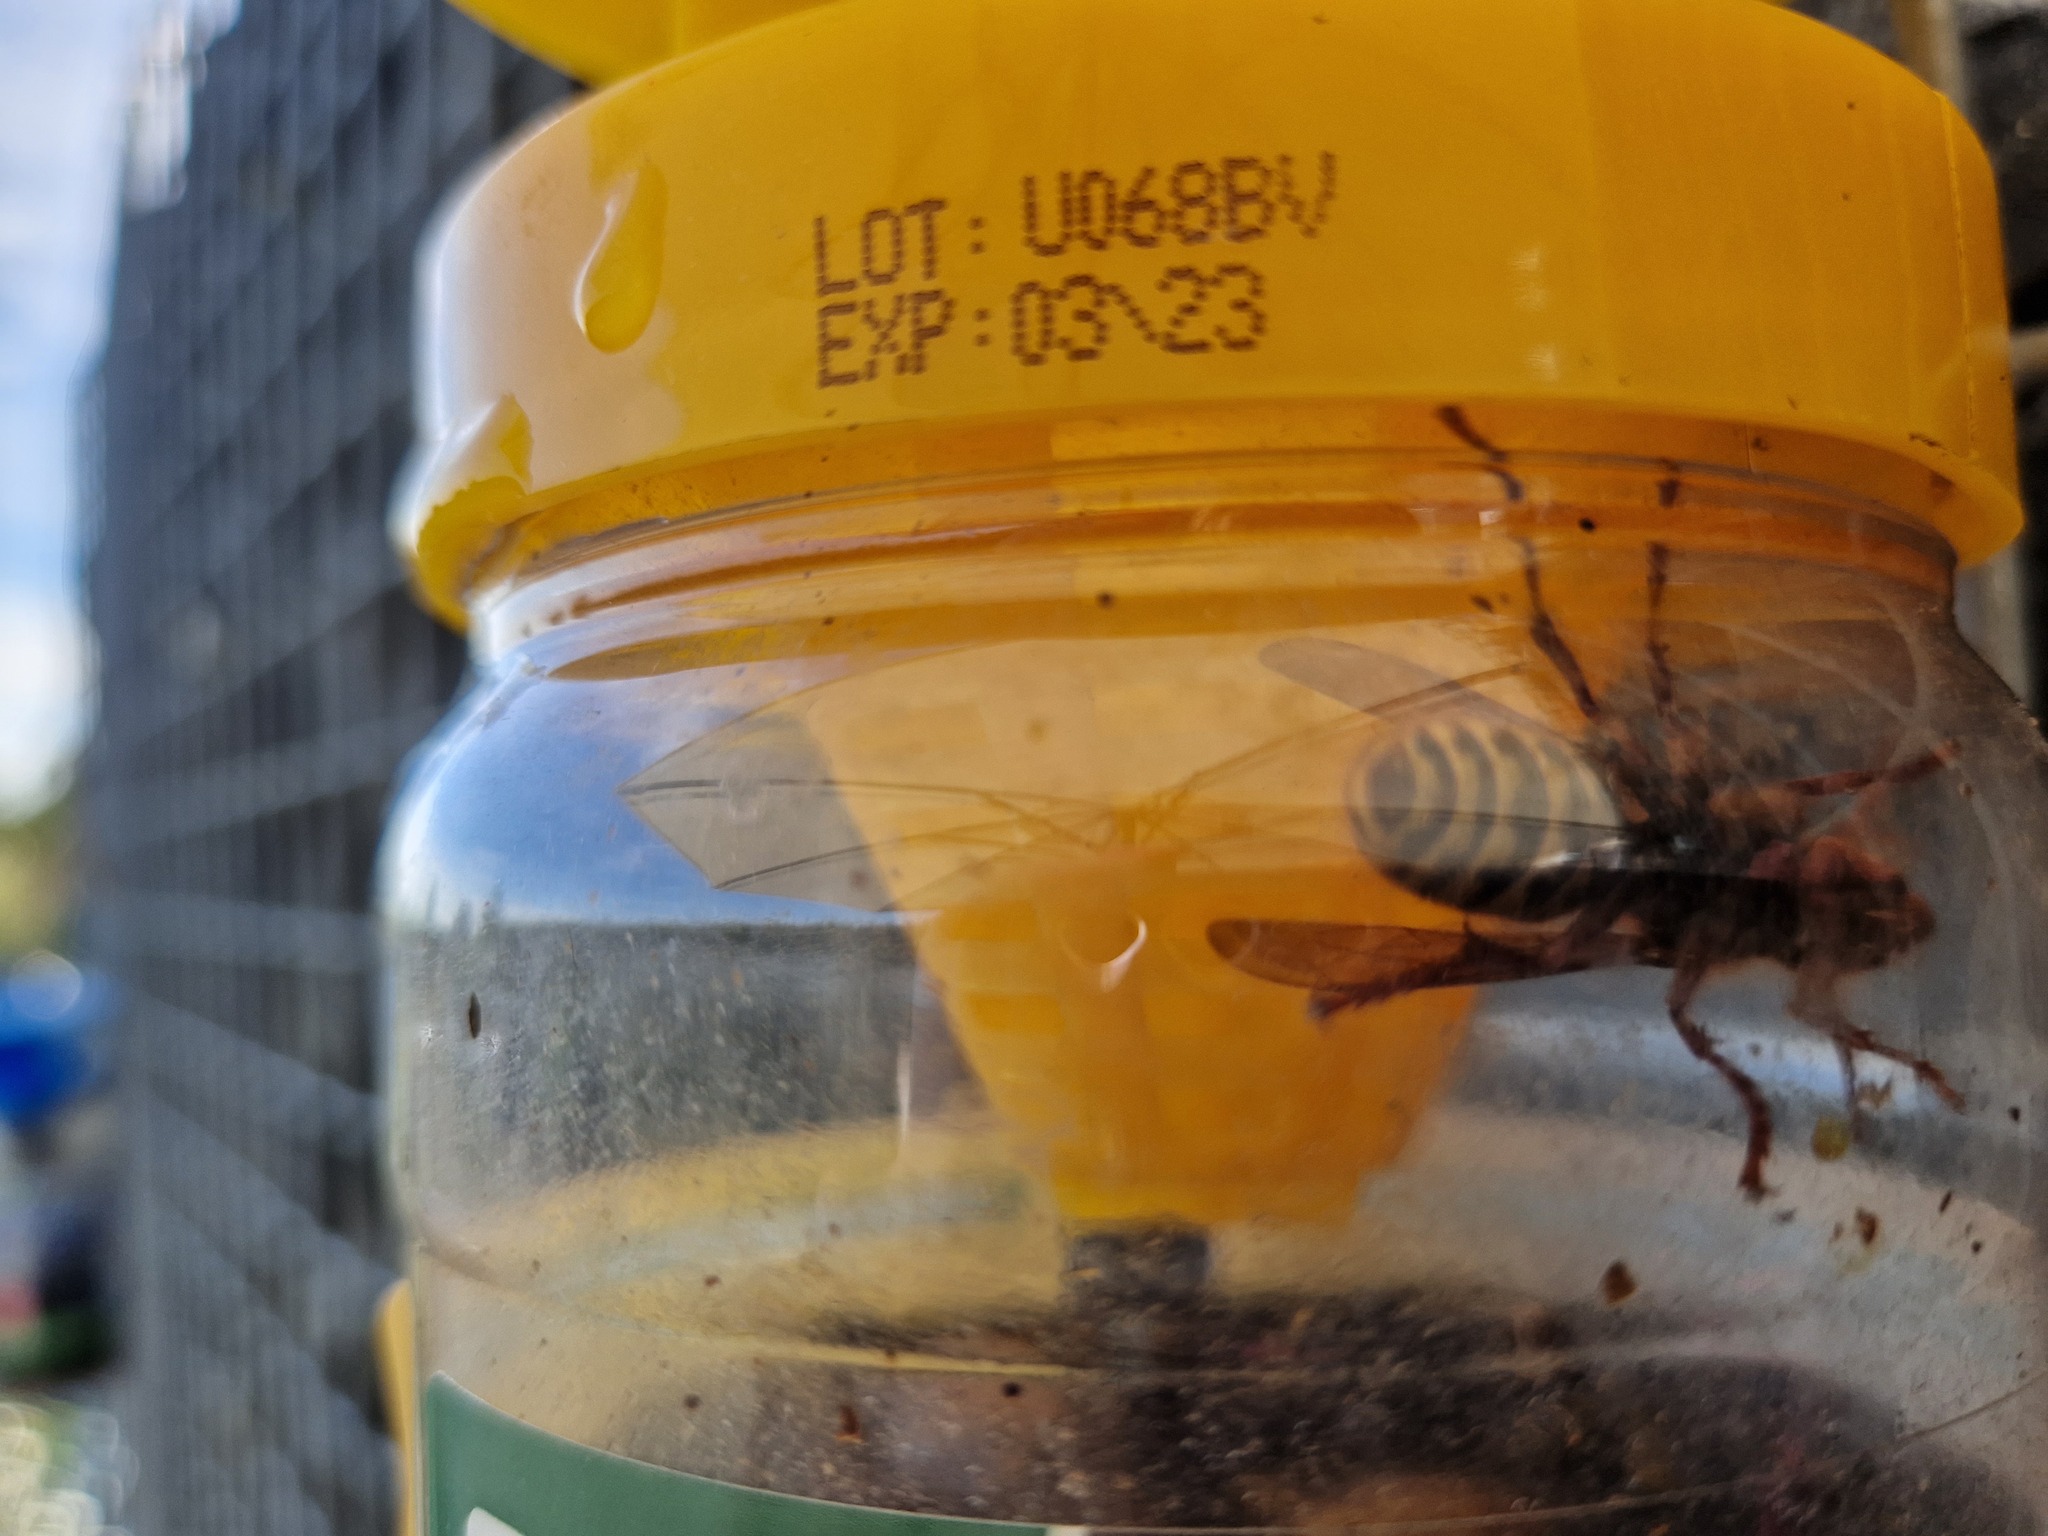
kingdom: Animalia
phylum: Arthropoda
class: Insecta
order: Hymenoptera
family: Vespidae
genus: Vespa
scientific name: Vespa crabro
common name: Hornet
